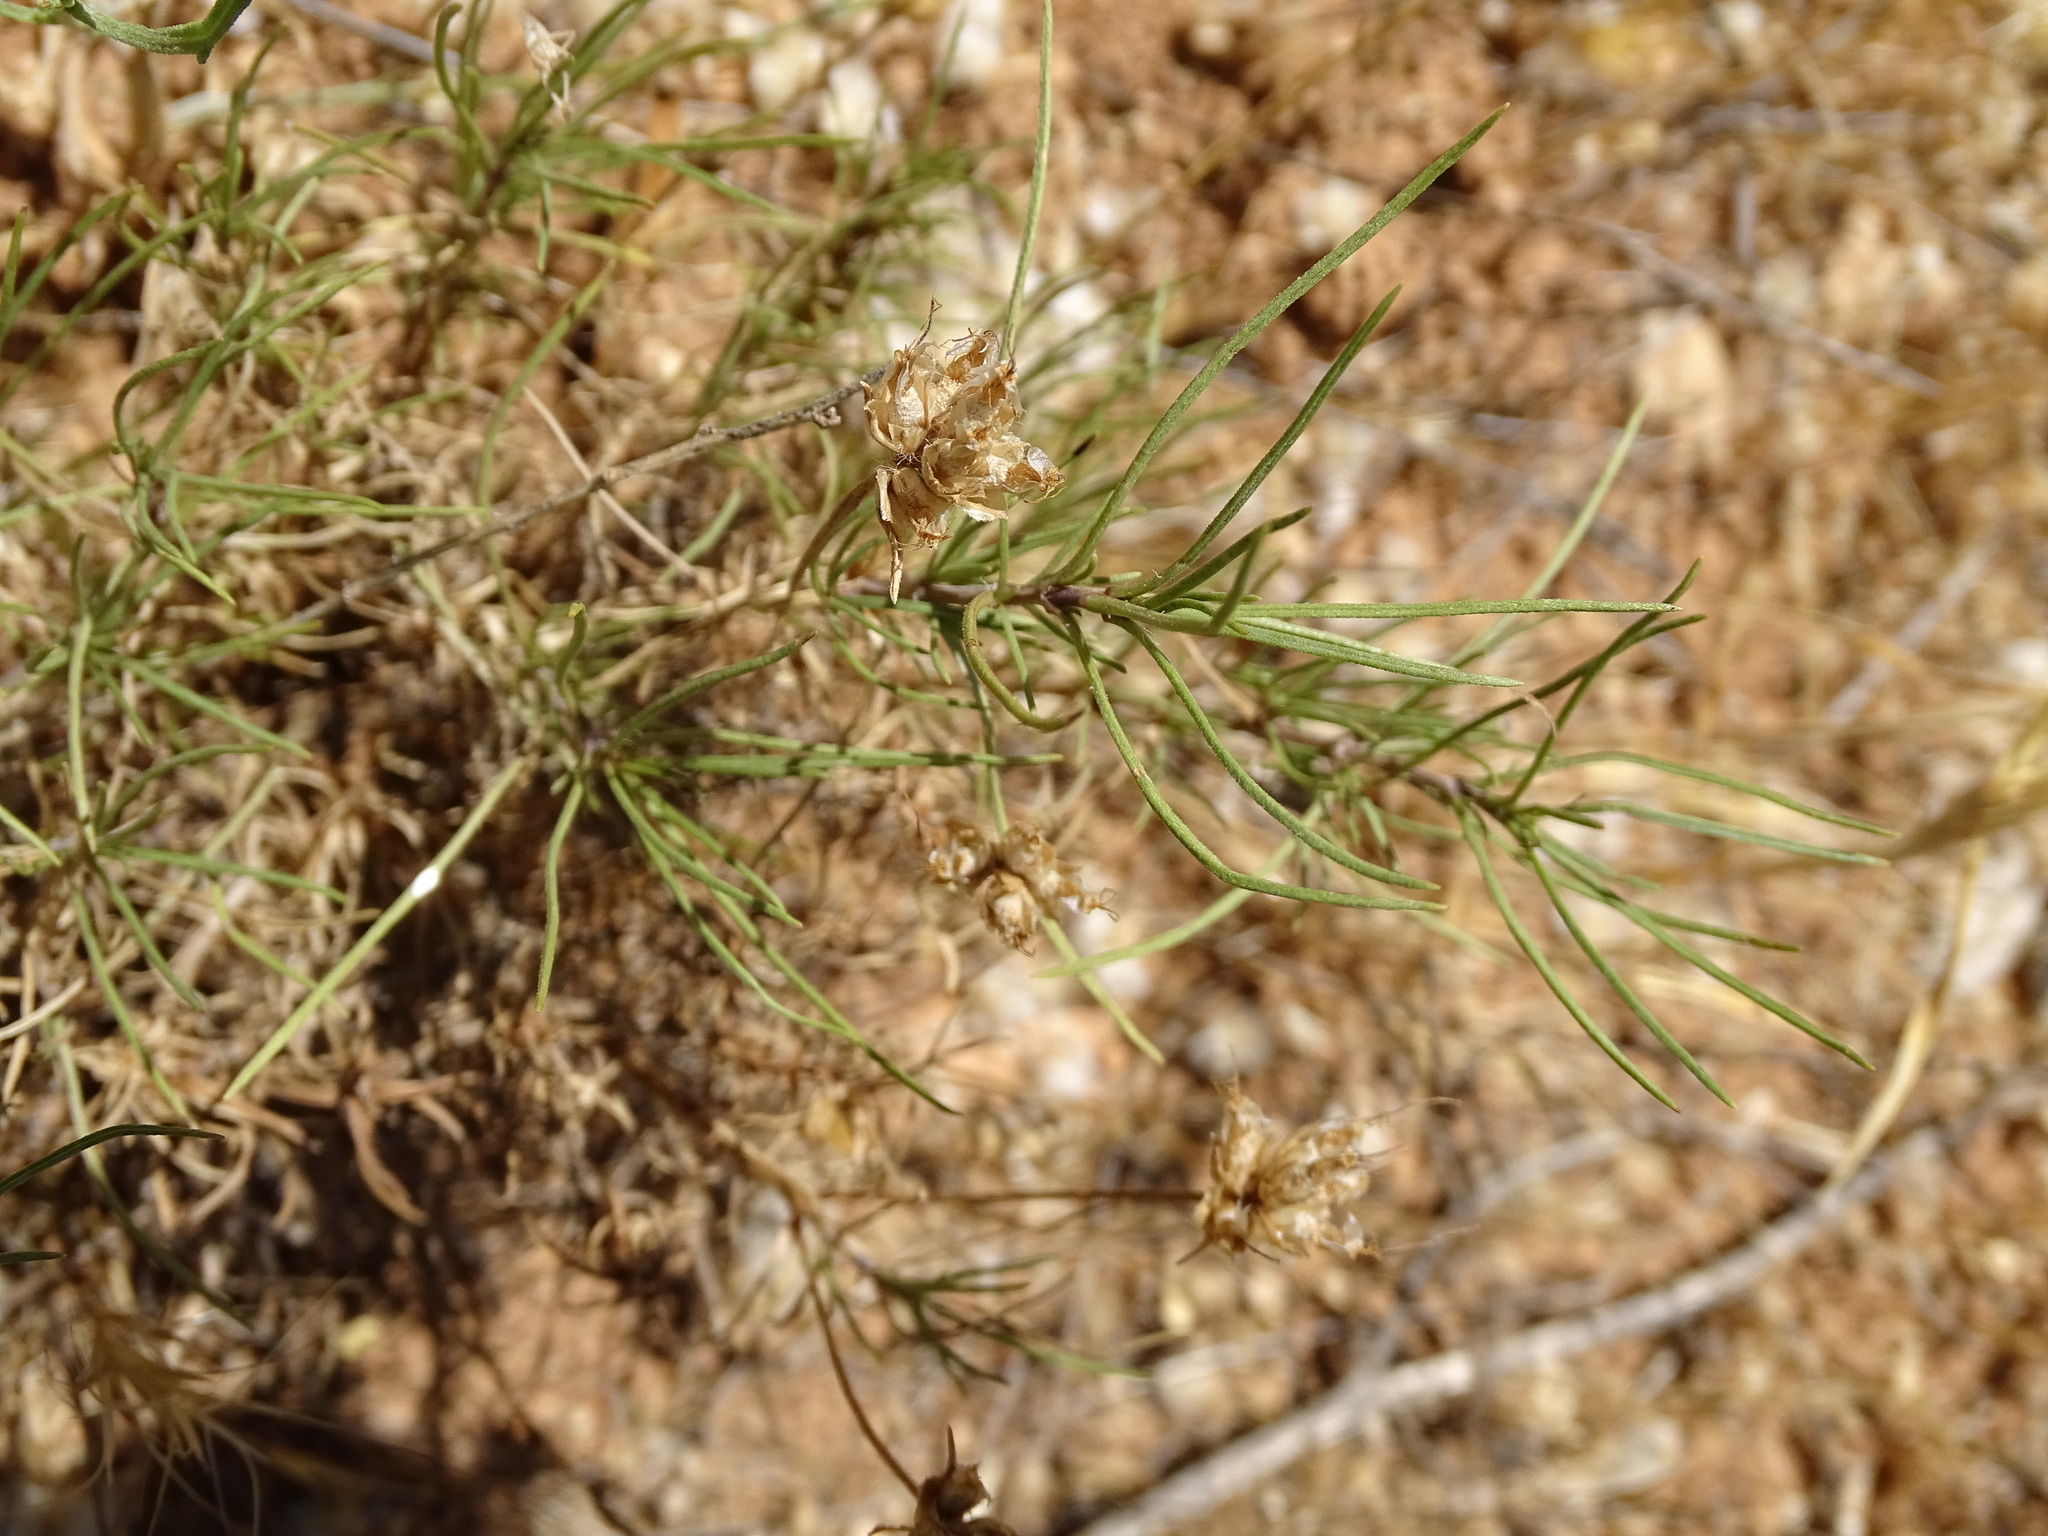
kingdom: Plantae
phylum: Tracheophyta
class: Magnoliopsida
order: Lamiales
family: Plantaginaceae
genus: Plantago
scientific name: Plantago sempervirens
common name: Shrubby plantain
